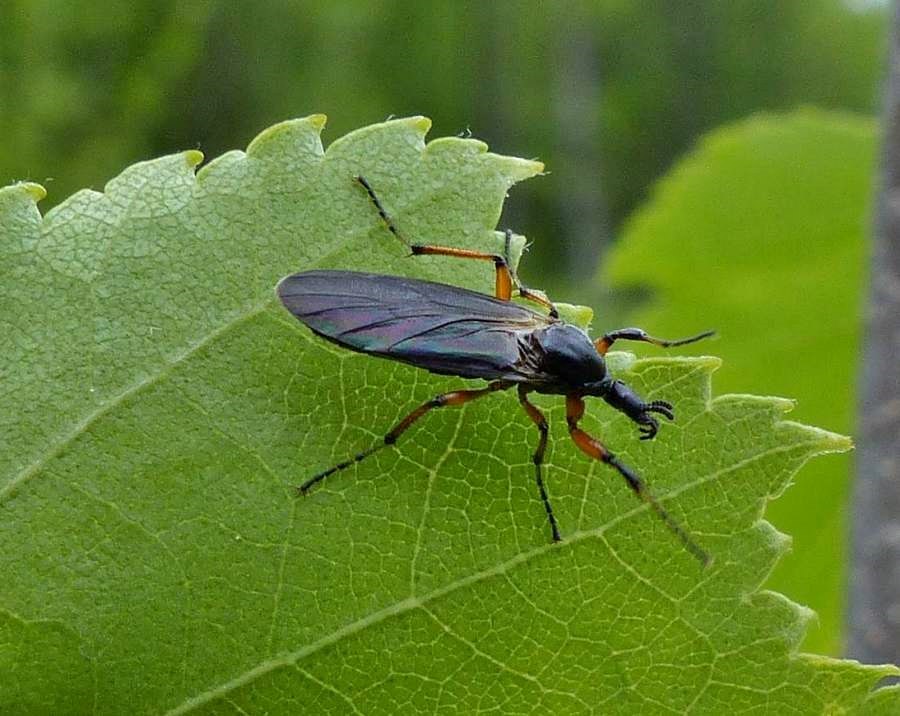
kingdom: Animalia
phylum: Arthropoda
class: Insecta
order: Diptera
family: Bibionidae
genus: Bibio
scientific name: Bibio xanthopus
